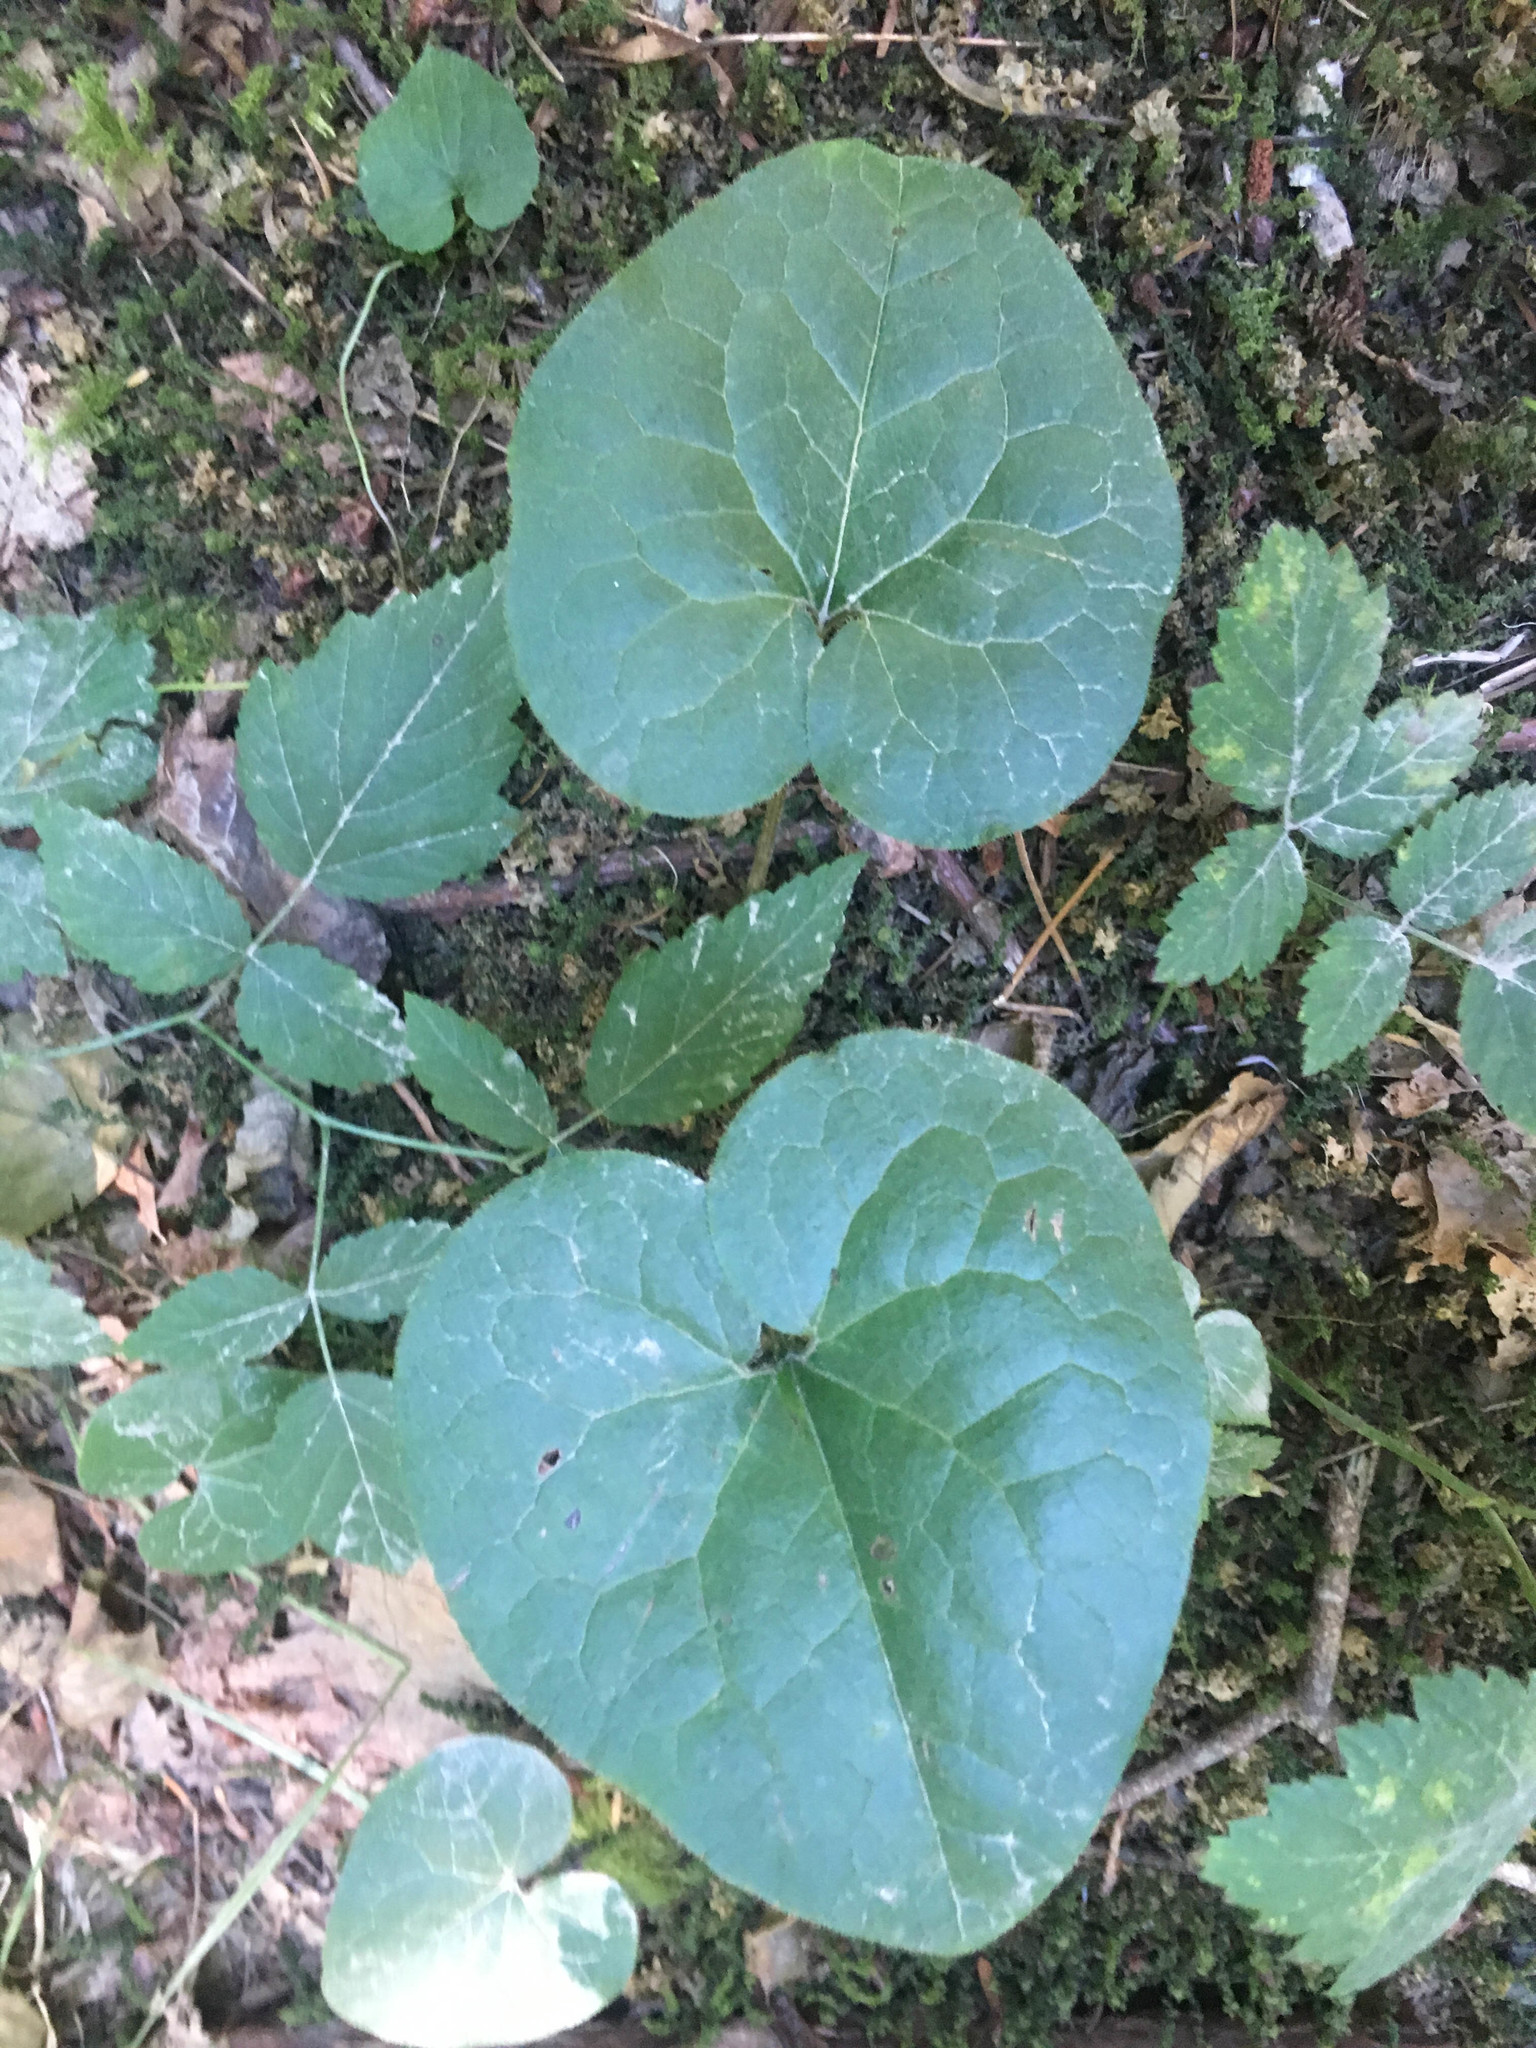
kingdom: Plantae
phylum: Tracheophyta
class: Magnoliopsida
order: Piperales
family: Aristolochiaceae
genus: Asarum
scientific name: Asarum caudatum
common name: Wild ginger
